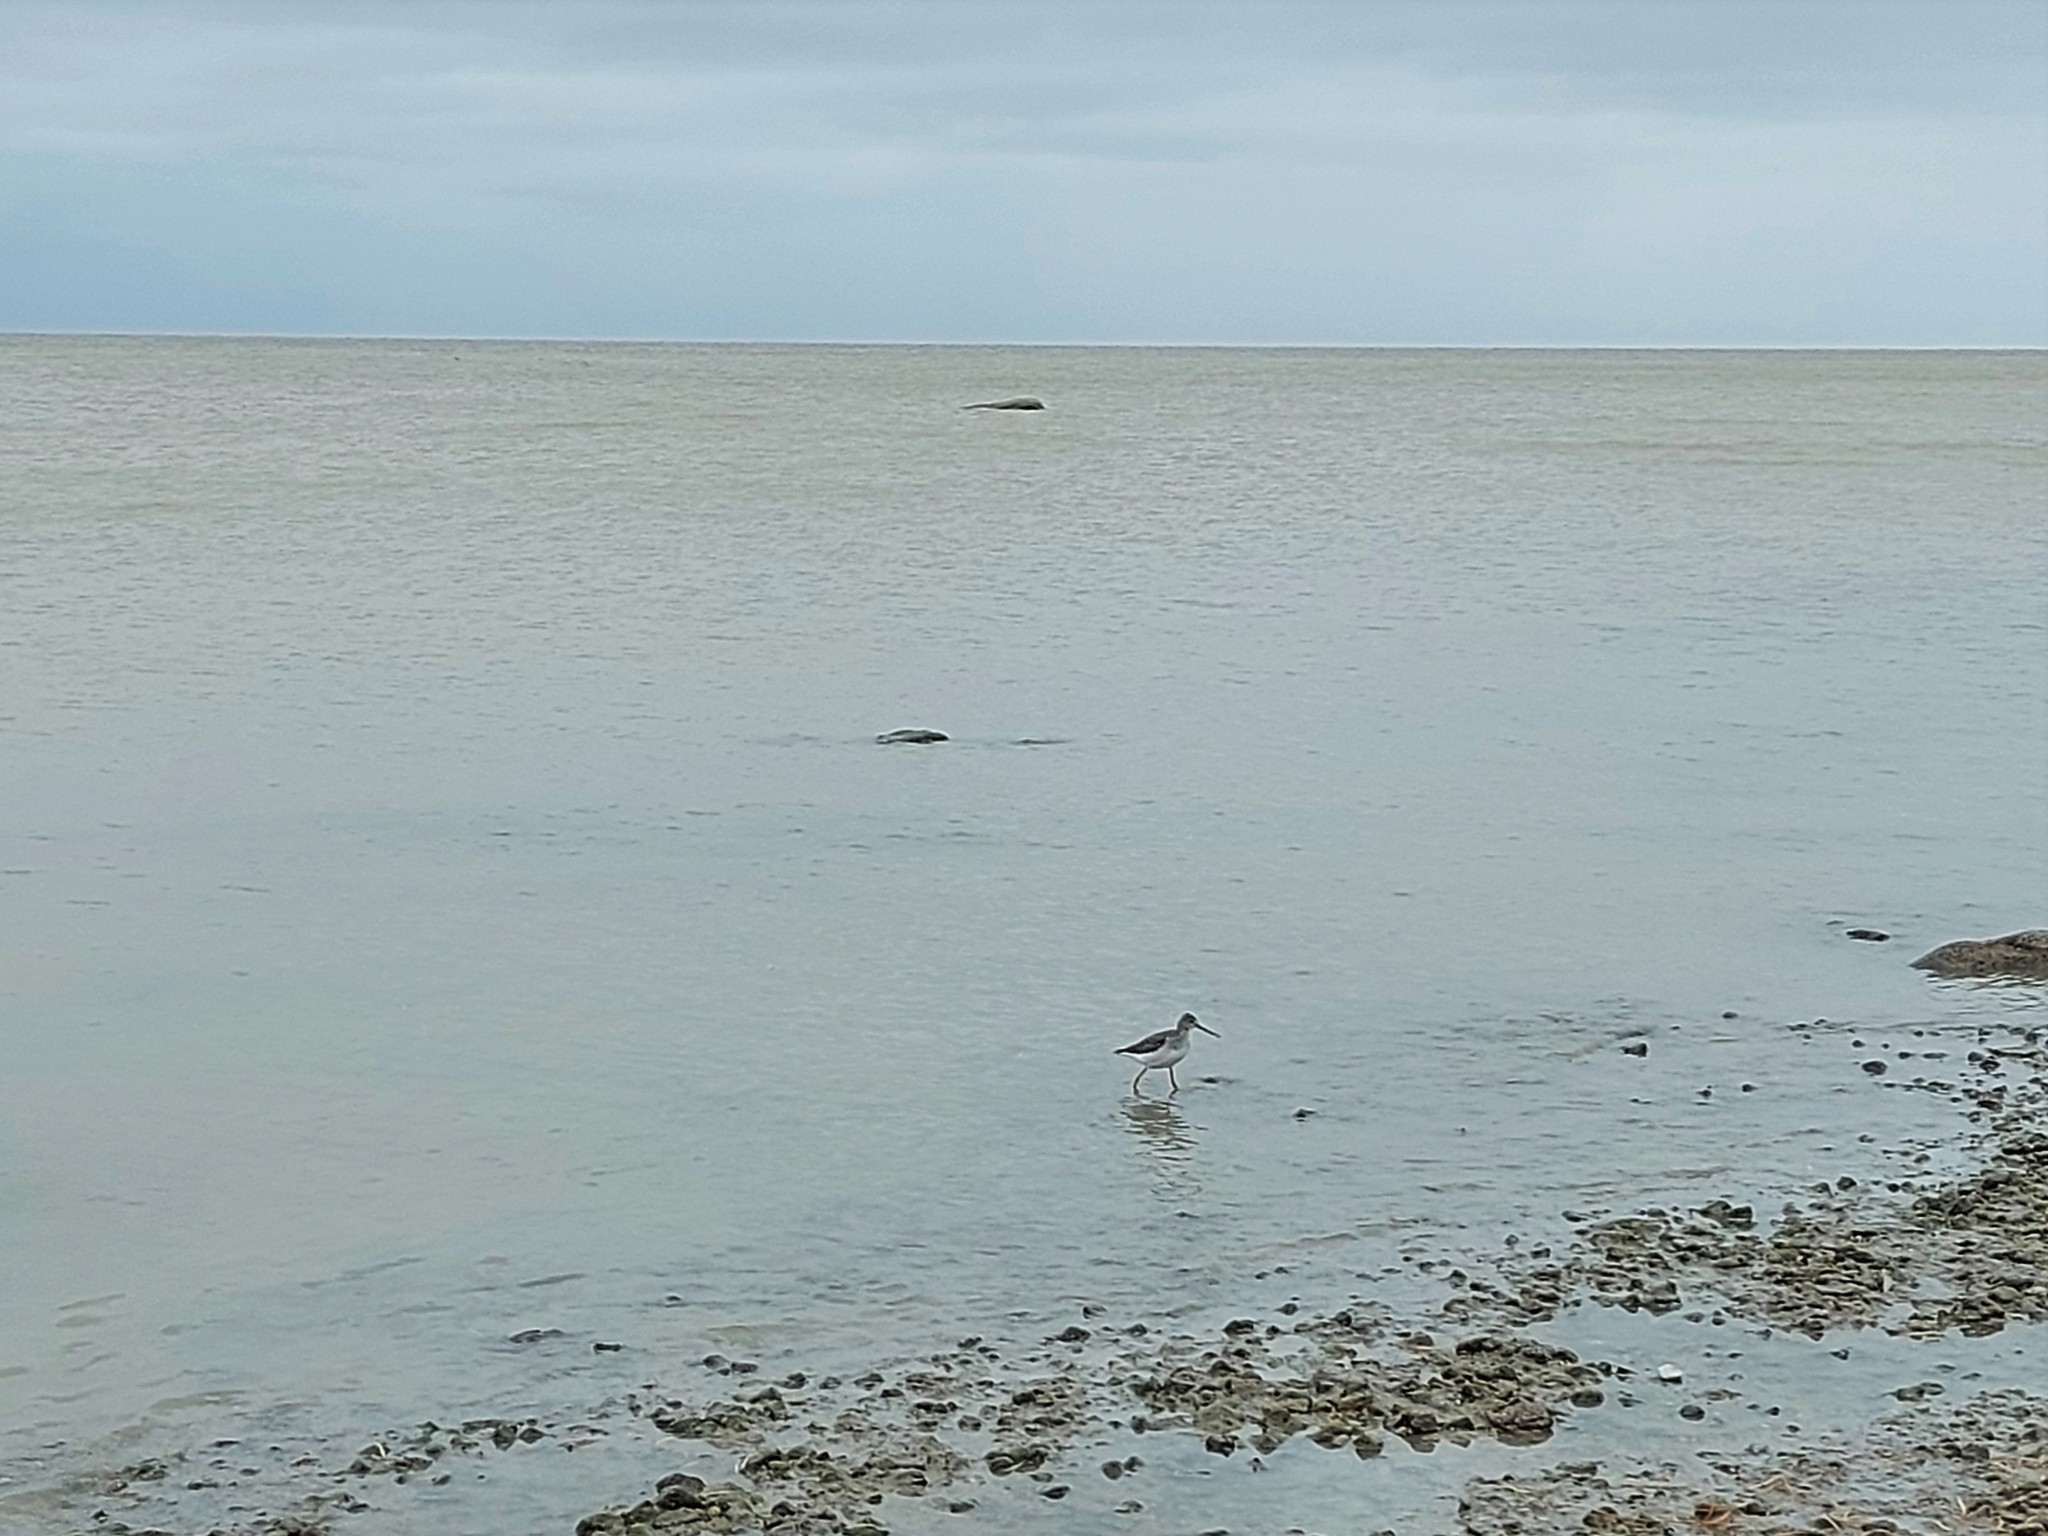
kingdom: Animalia
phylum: Chordata
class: Aves
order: Charadriiformes
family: Scolopacidae
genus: Tringa
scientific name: Tringa melanoleuca
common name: Greater yellowlegs
